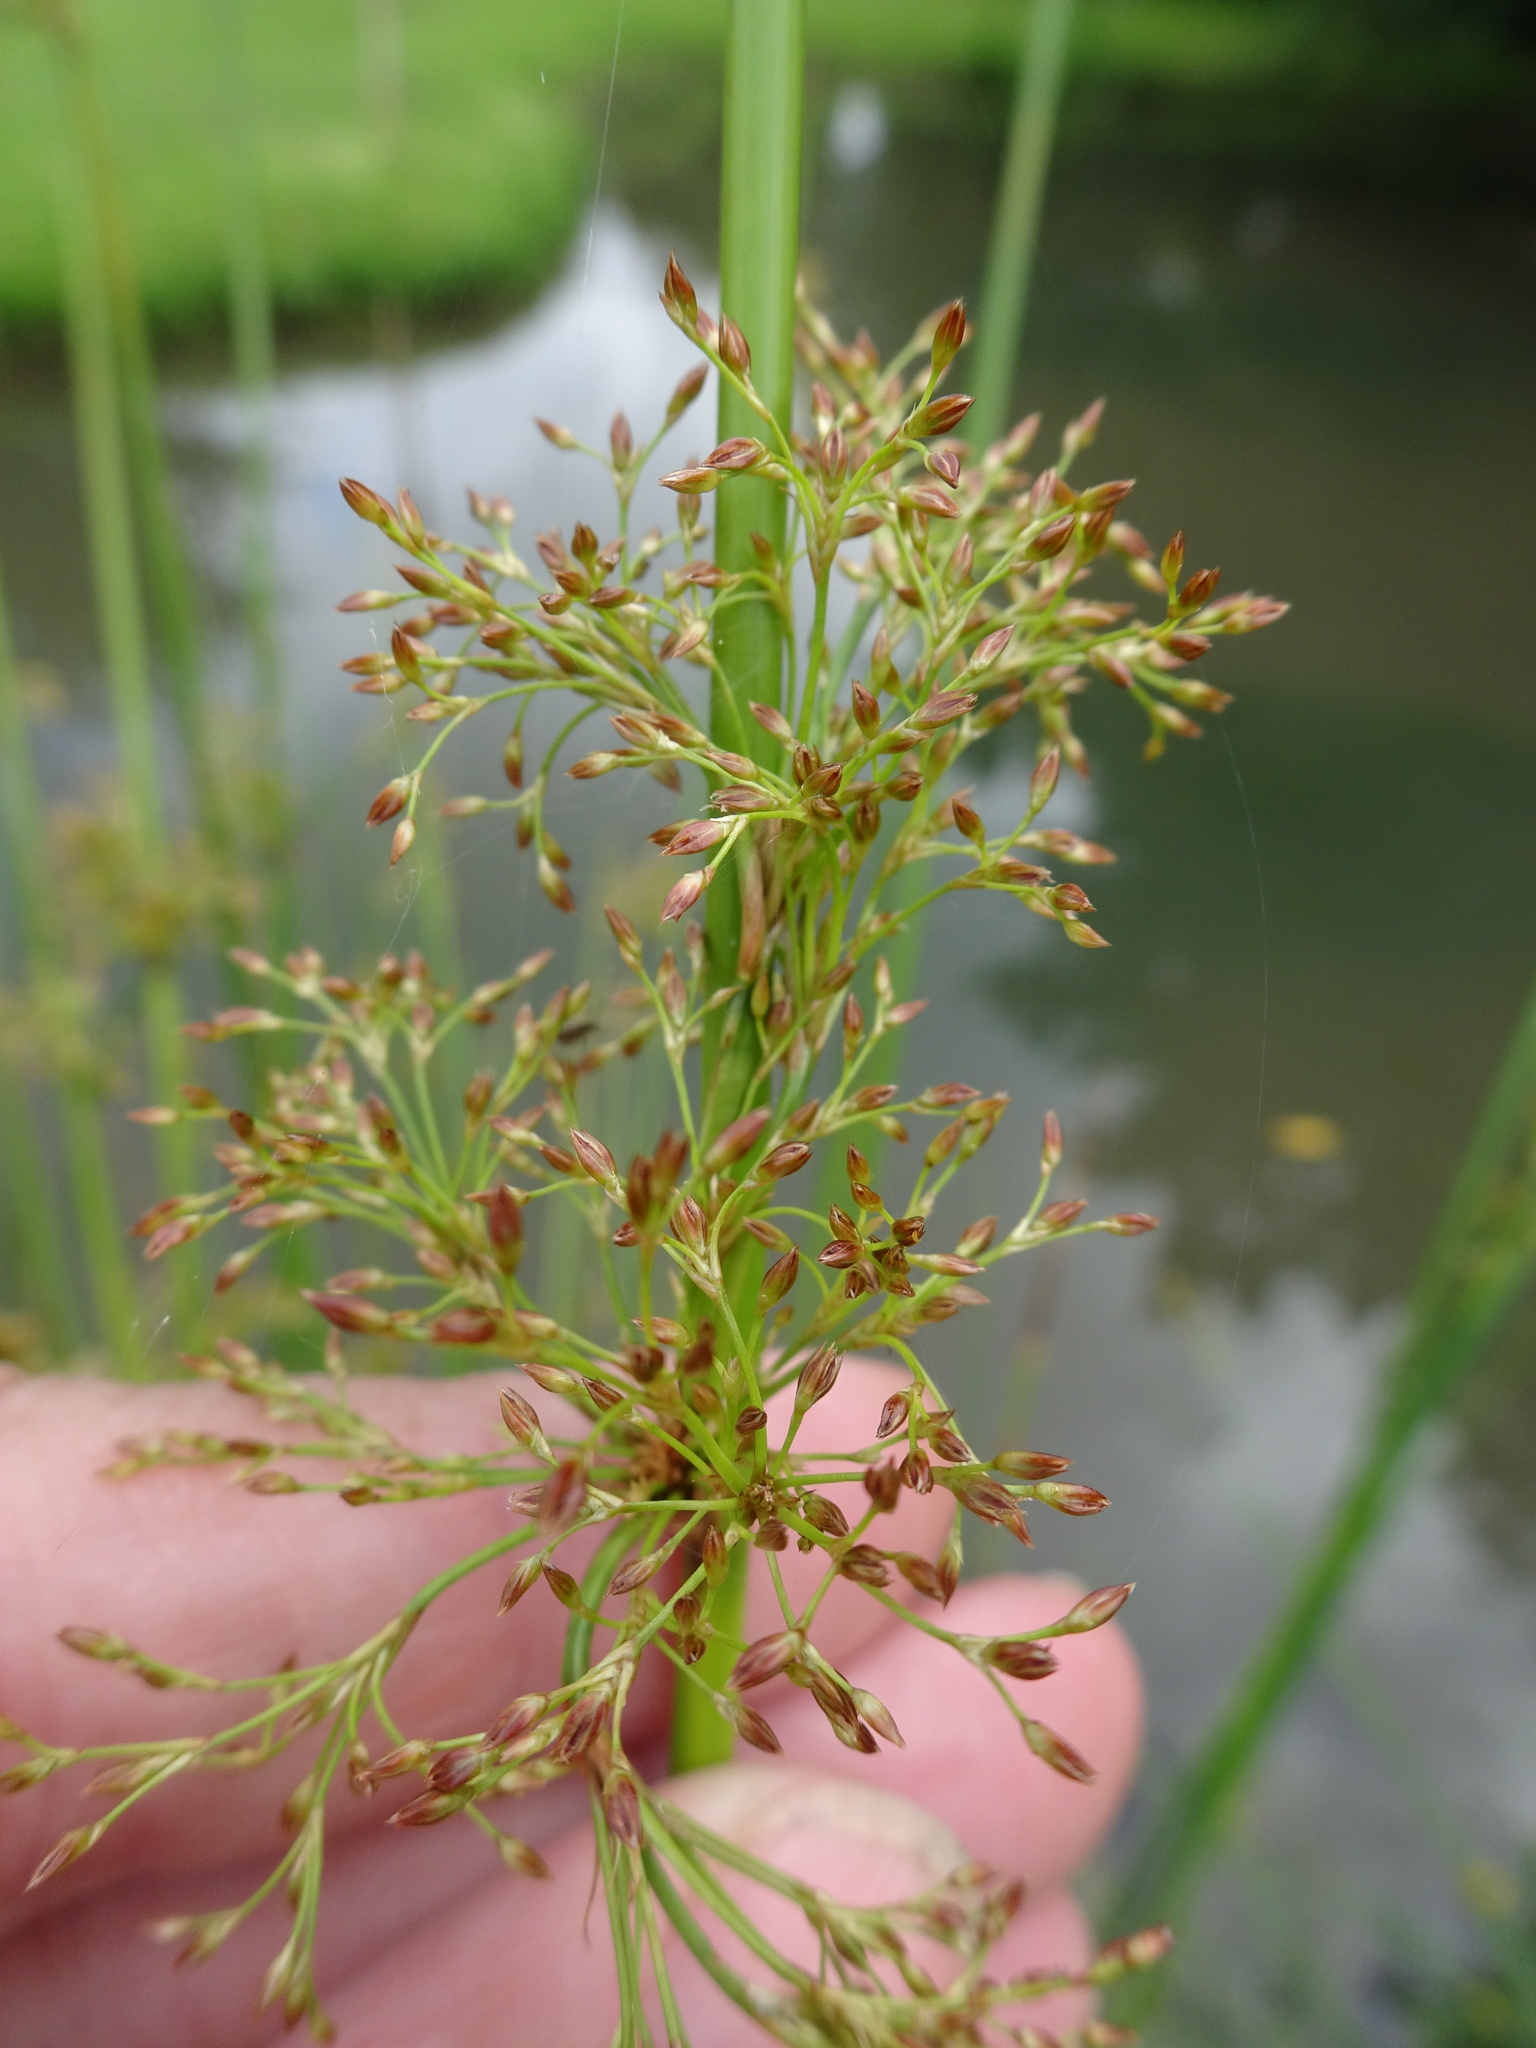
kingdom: Plantae
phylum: Tracheophyta
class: Liliopsida
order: Poales
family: Juncaceae
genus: Juncus
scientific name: Juncus effusus
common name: Soft rush
